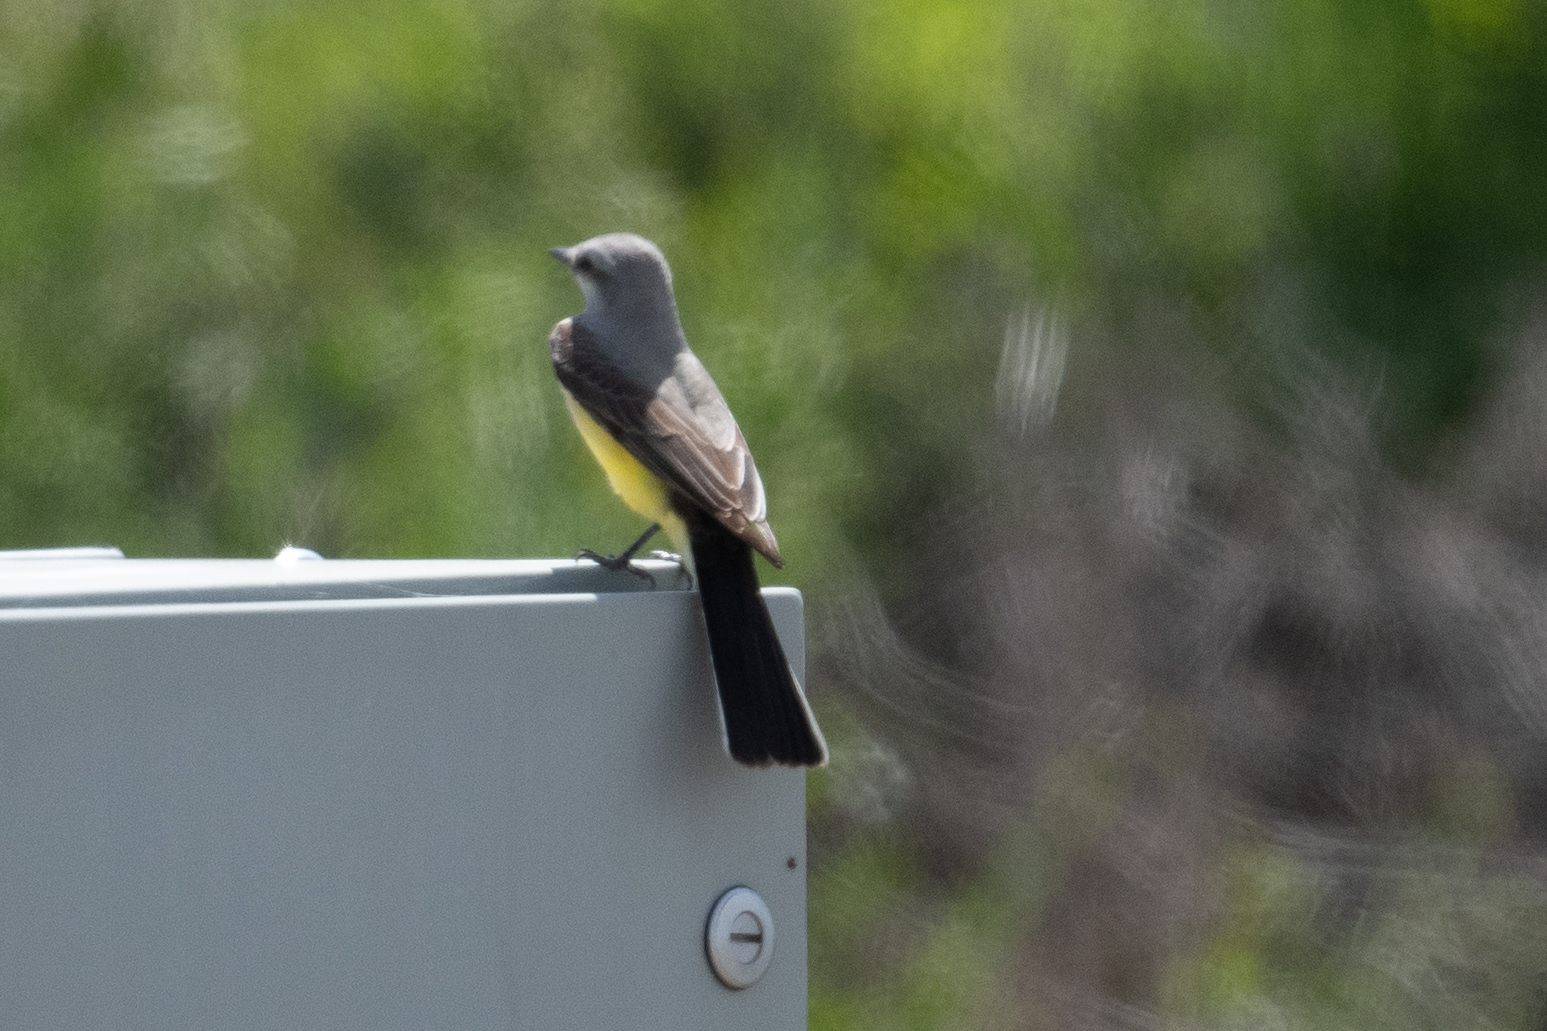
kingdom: Animalia
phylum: Chordata
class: Aves
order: Passeriformes
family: Tyrannidae
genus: Tyrannus
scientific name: Tyrannus verticalis
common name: Western kingbird
